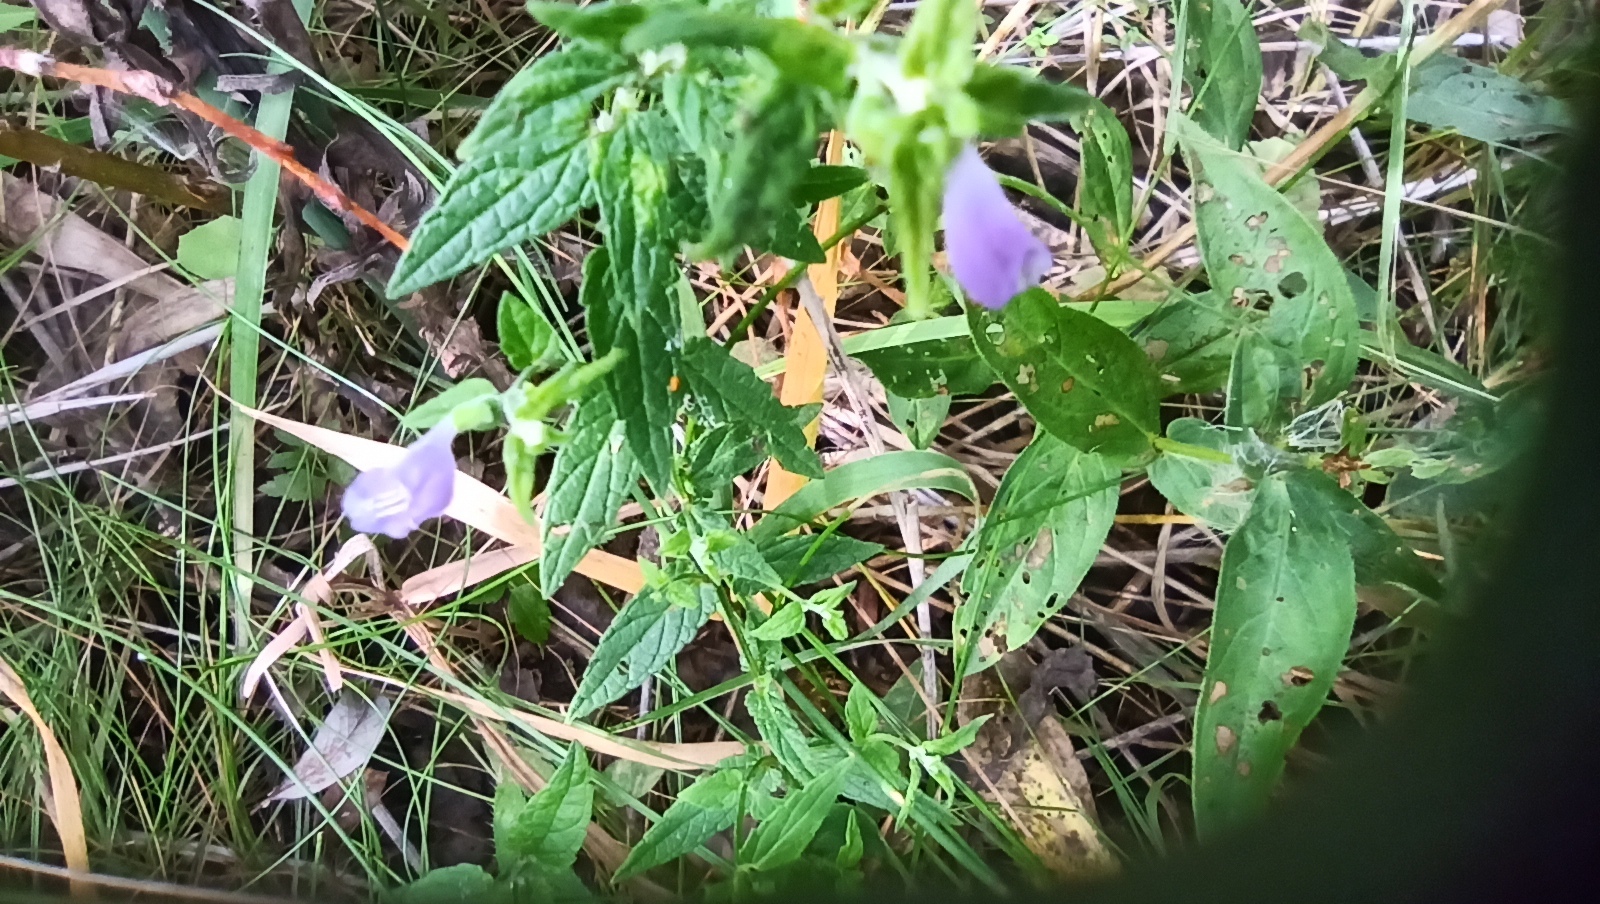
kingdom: Plantae
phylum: Tracheophyta
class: Magnoliopsida
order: Lamiales
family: Lamiaceae
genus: Scutellaria
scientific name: Scutellaria galericulata
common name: Skullcap
